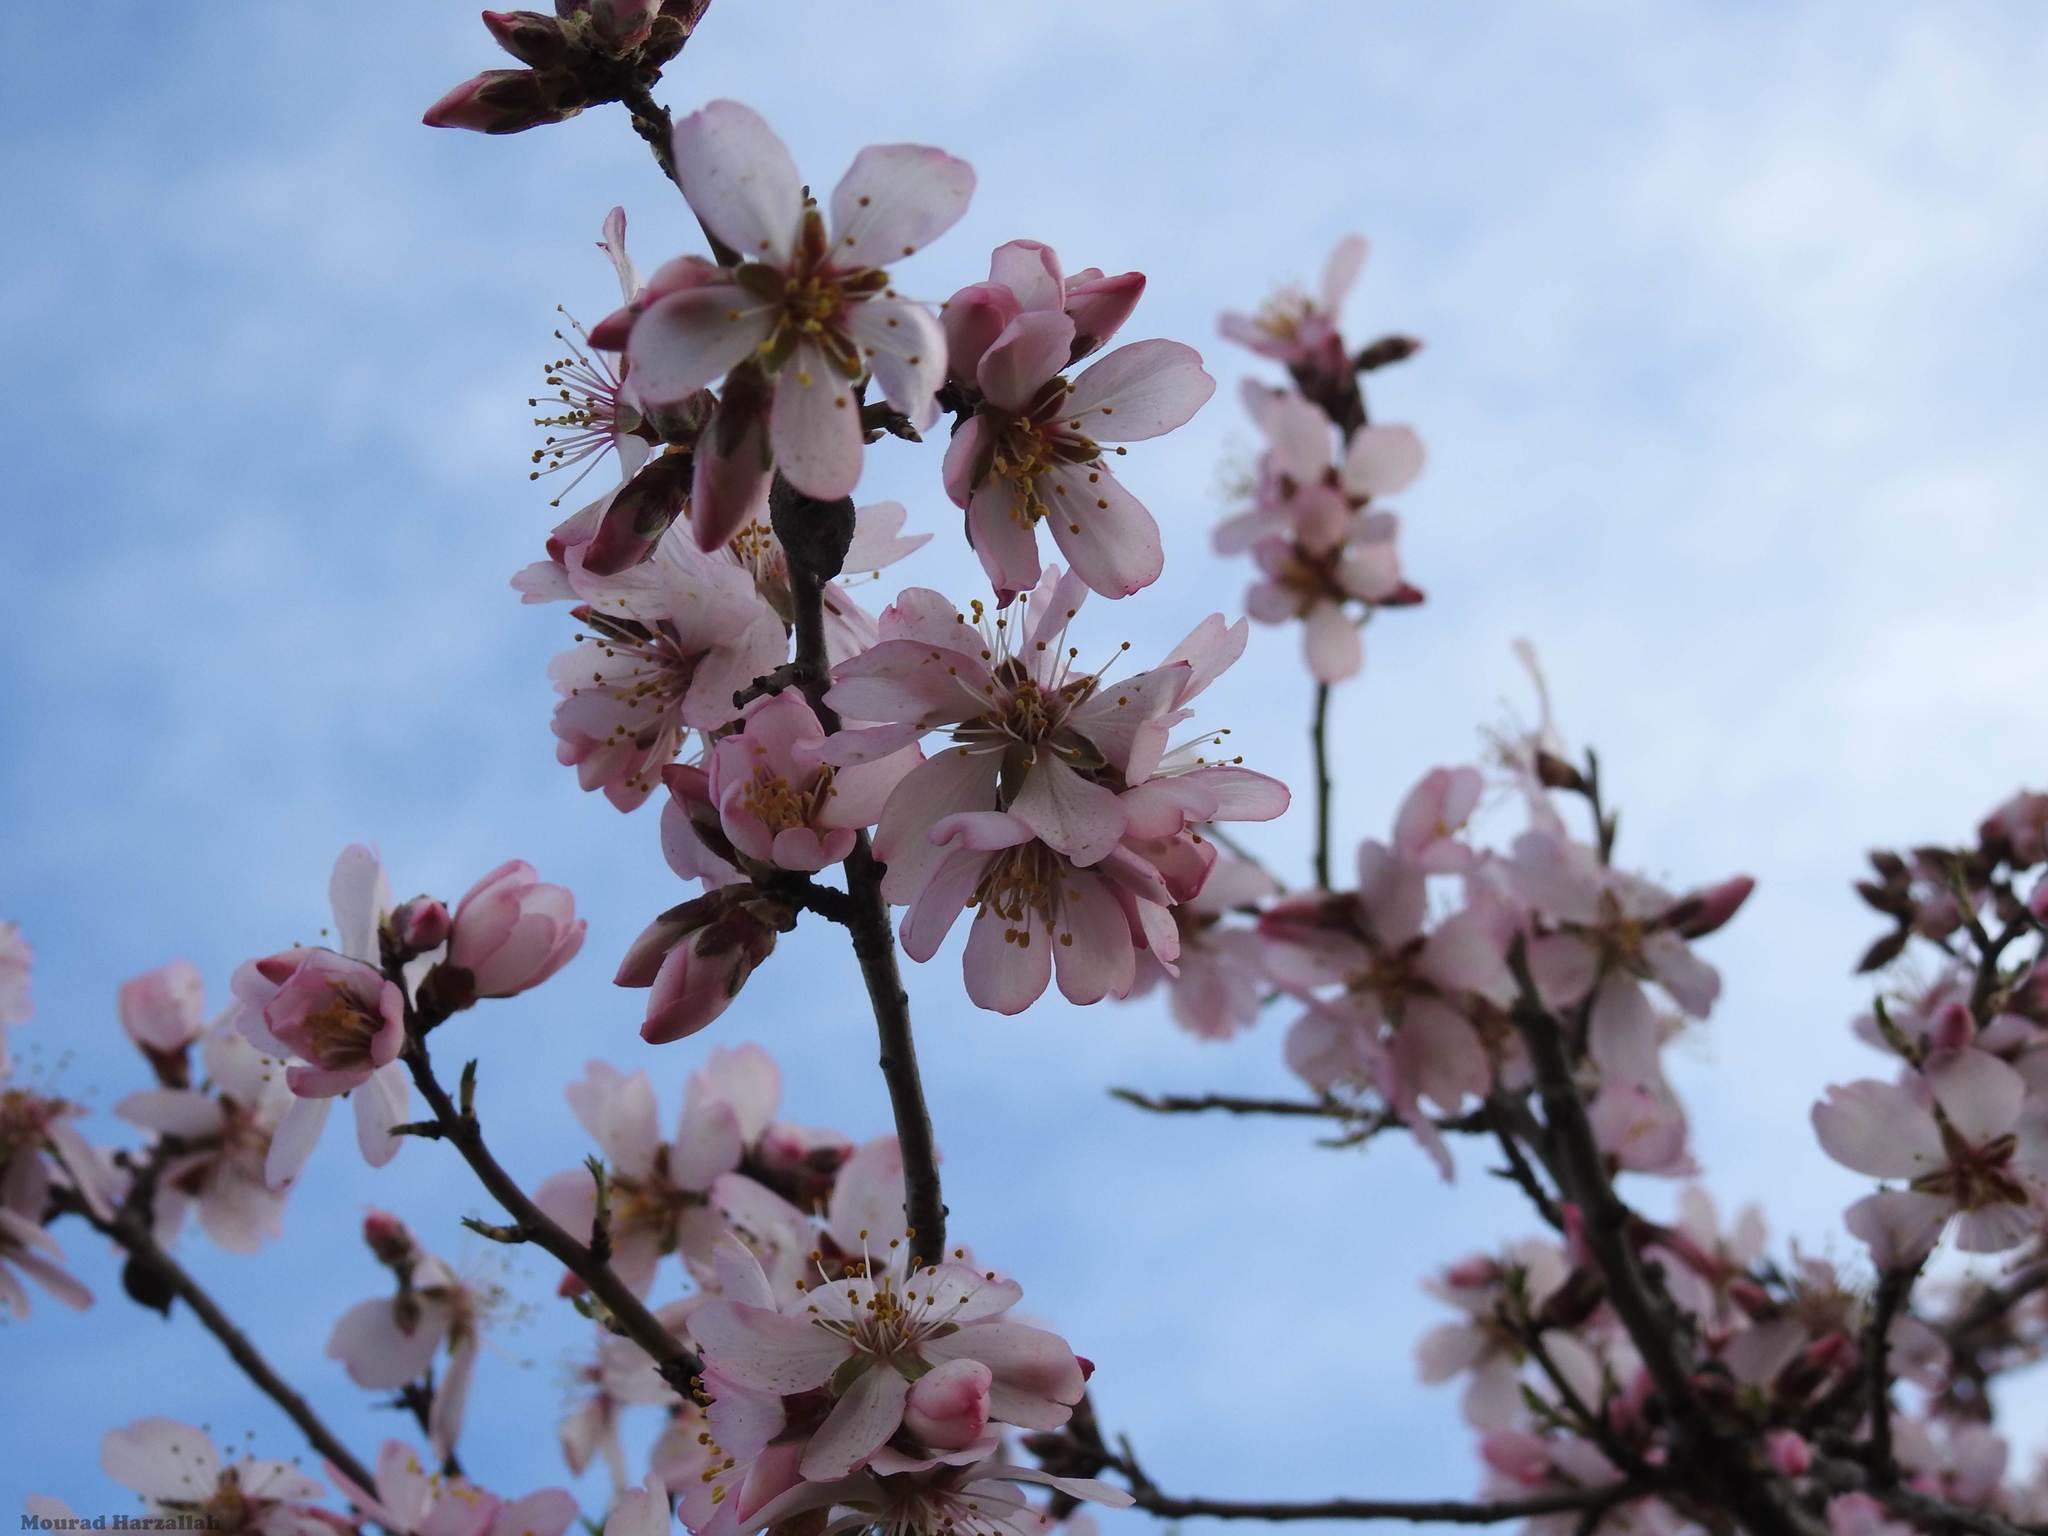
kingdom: Plantae
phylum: Tracheophyta
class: Magnoliopsida
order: Rosales
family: Rosaceae
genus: Prunus
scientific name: Prunus amygdalus
